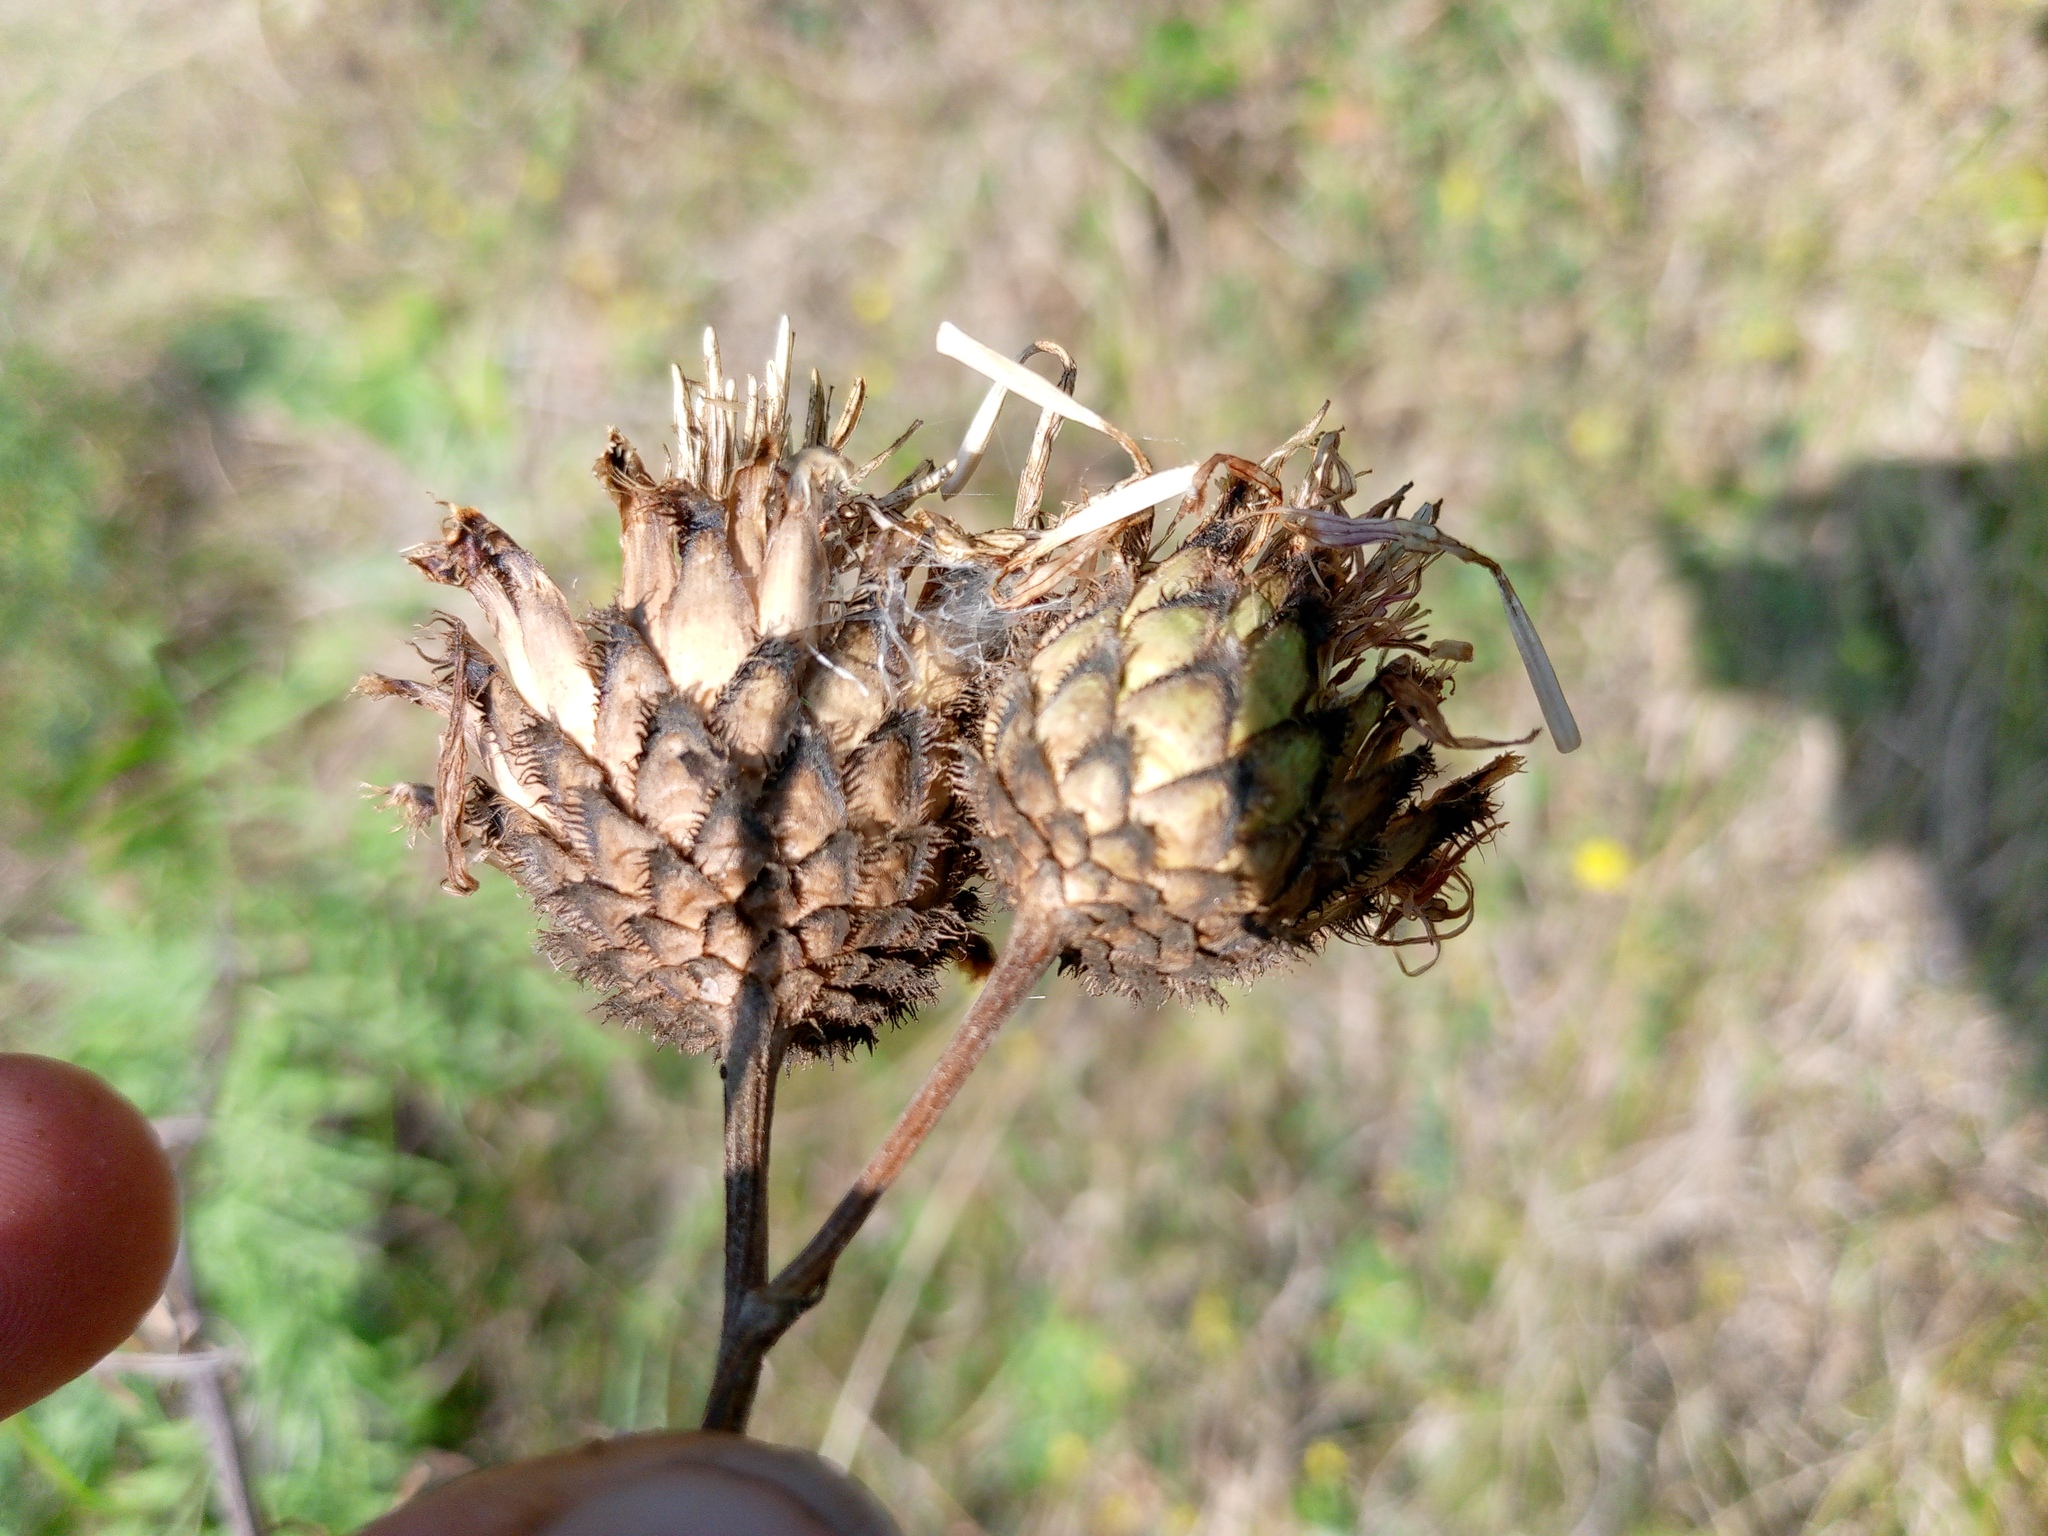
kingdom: Plantae
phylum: Tracheophyta
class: Magnoliopsida
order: Asterales
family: Asteraceae
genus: Centaurea
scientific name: Centaurea scabiosa
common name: Greater knapweed
